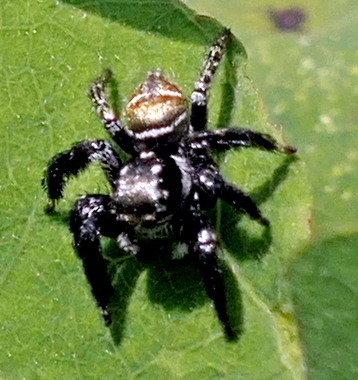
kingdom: Animalia
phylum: Arthropoda
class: Arachnida
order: Araneae
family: Salticidae
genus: Corythalia
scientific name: Corythalia spiralis
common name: Jumping spiders
